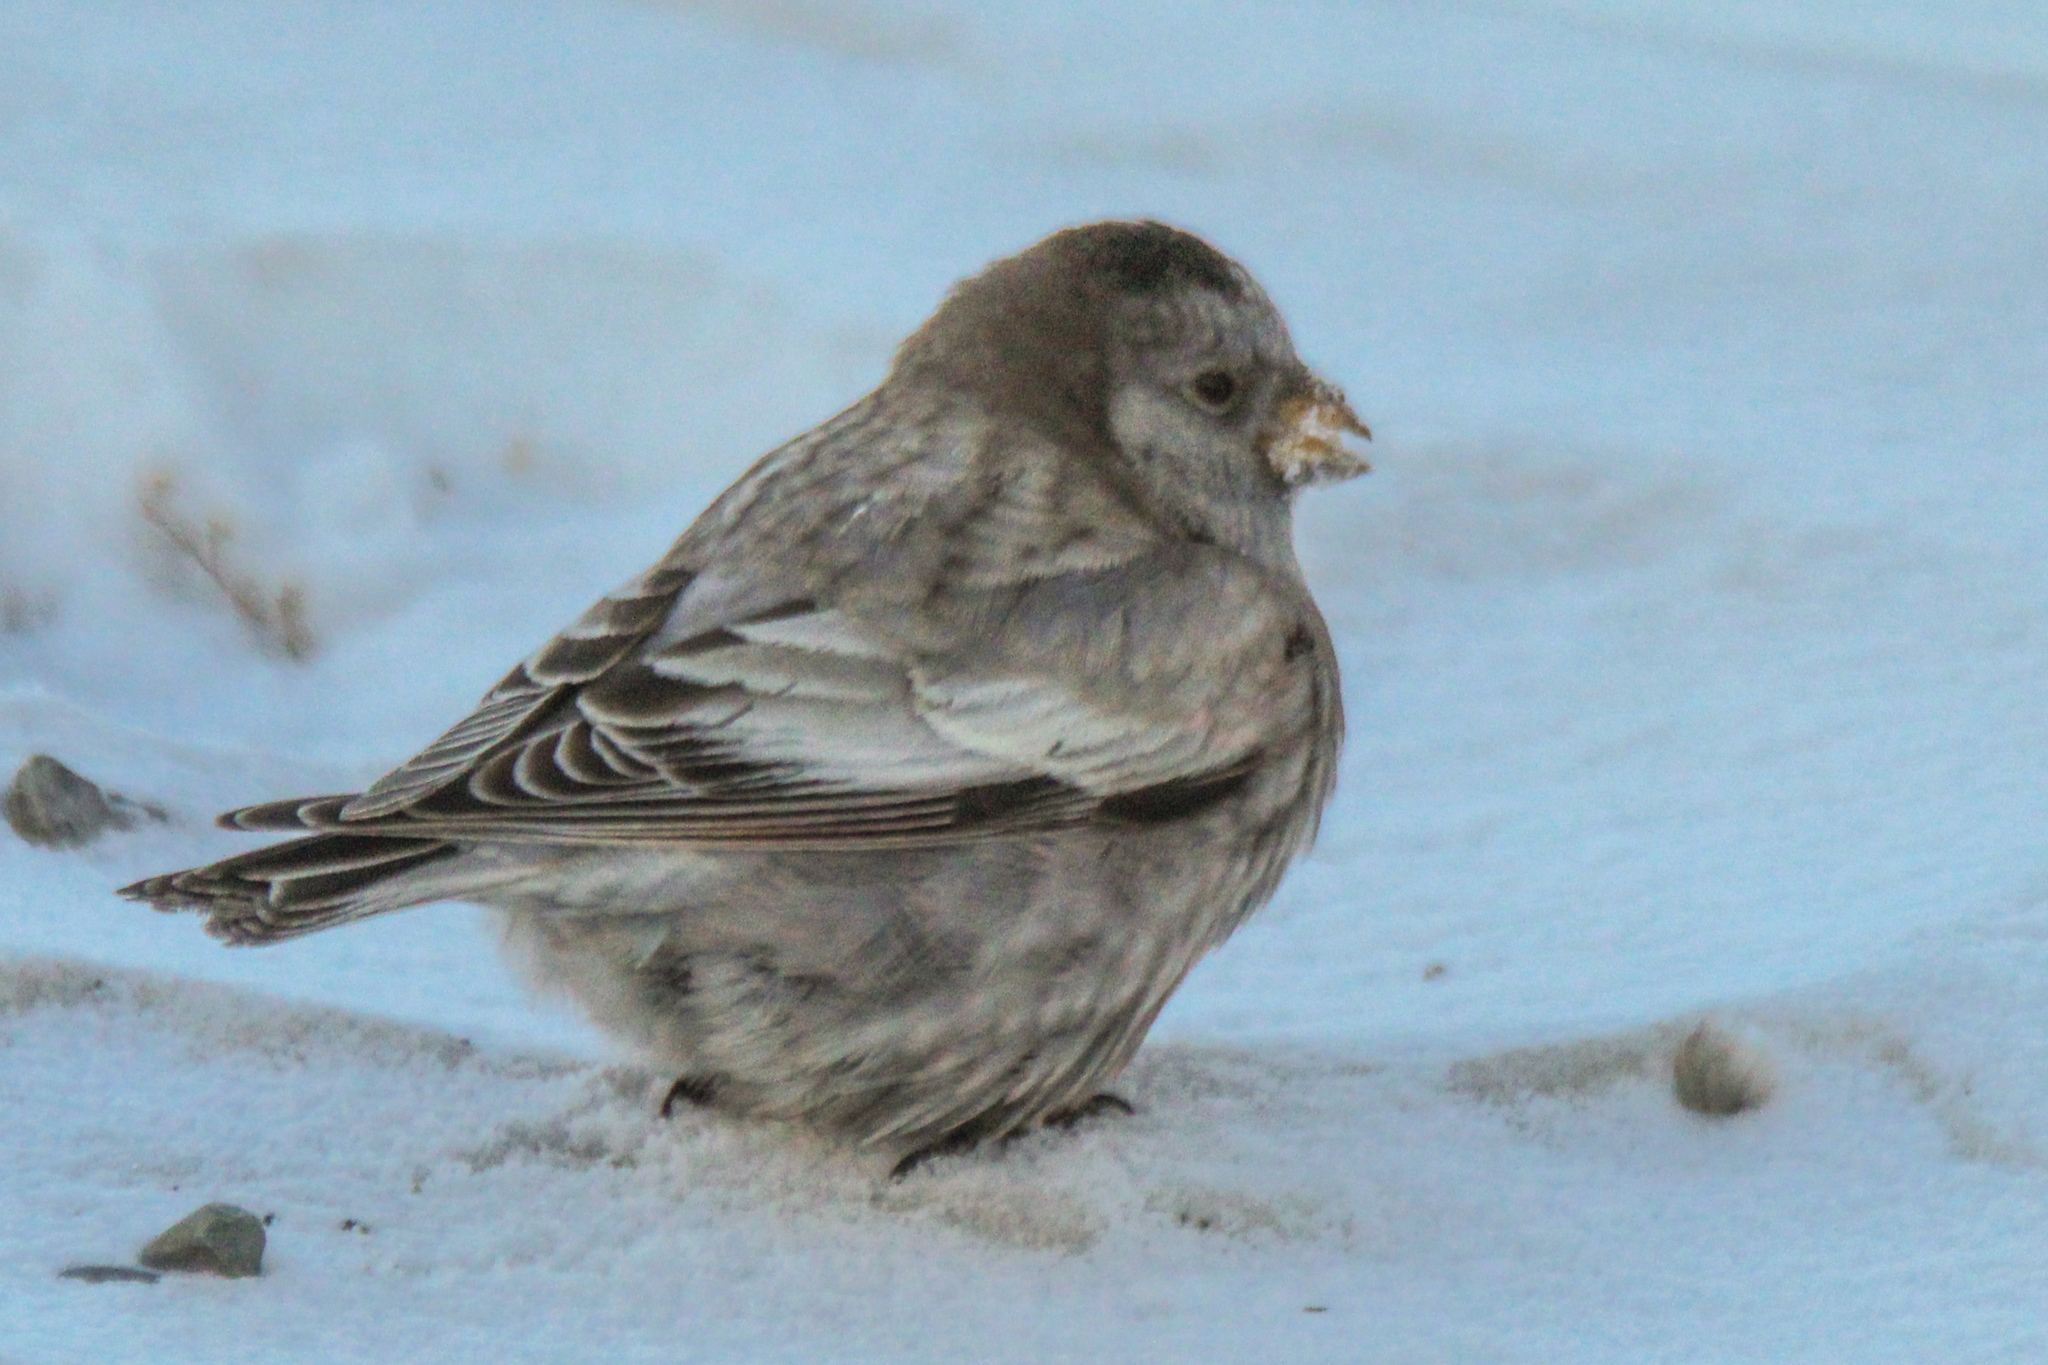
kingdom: Animalia
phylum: Chordata
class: Aves
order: Passeriformes
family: Fringillidae
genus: Leucosticte
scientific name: Leucosticte brandti
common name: Brandt's mountain finch
